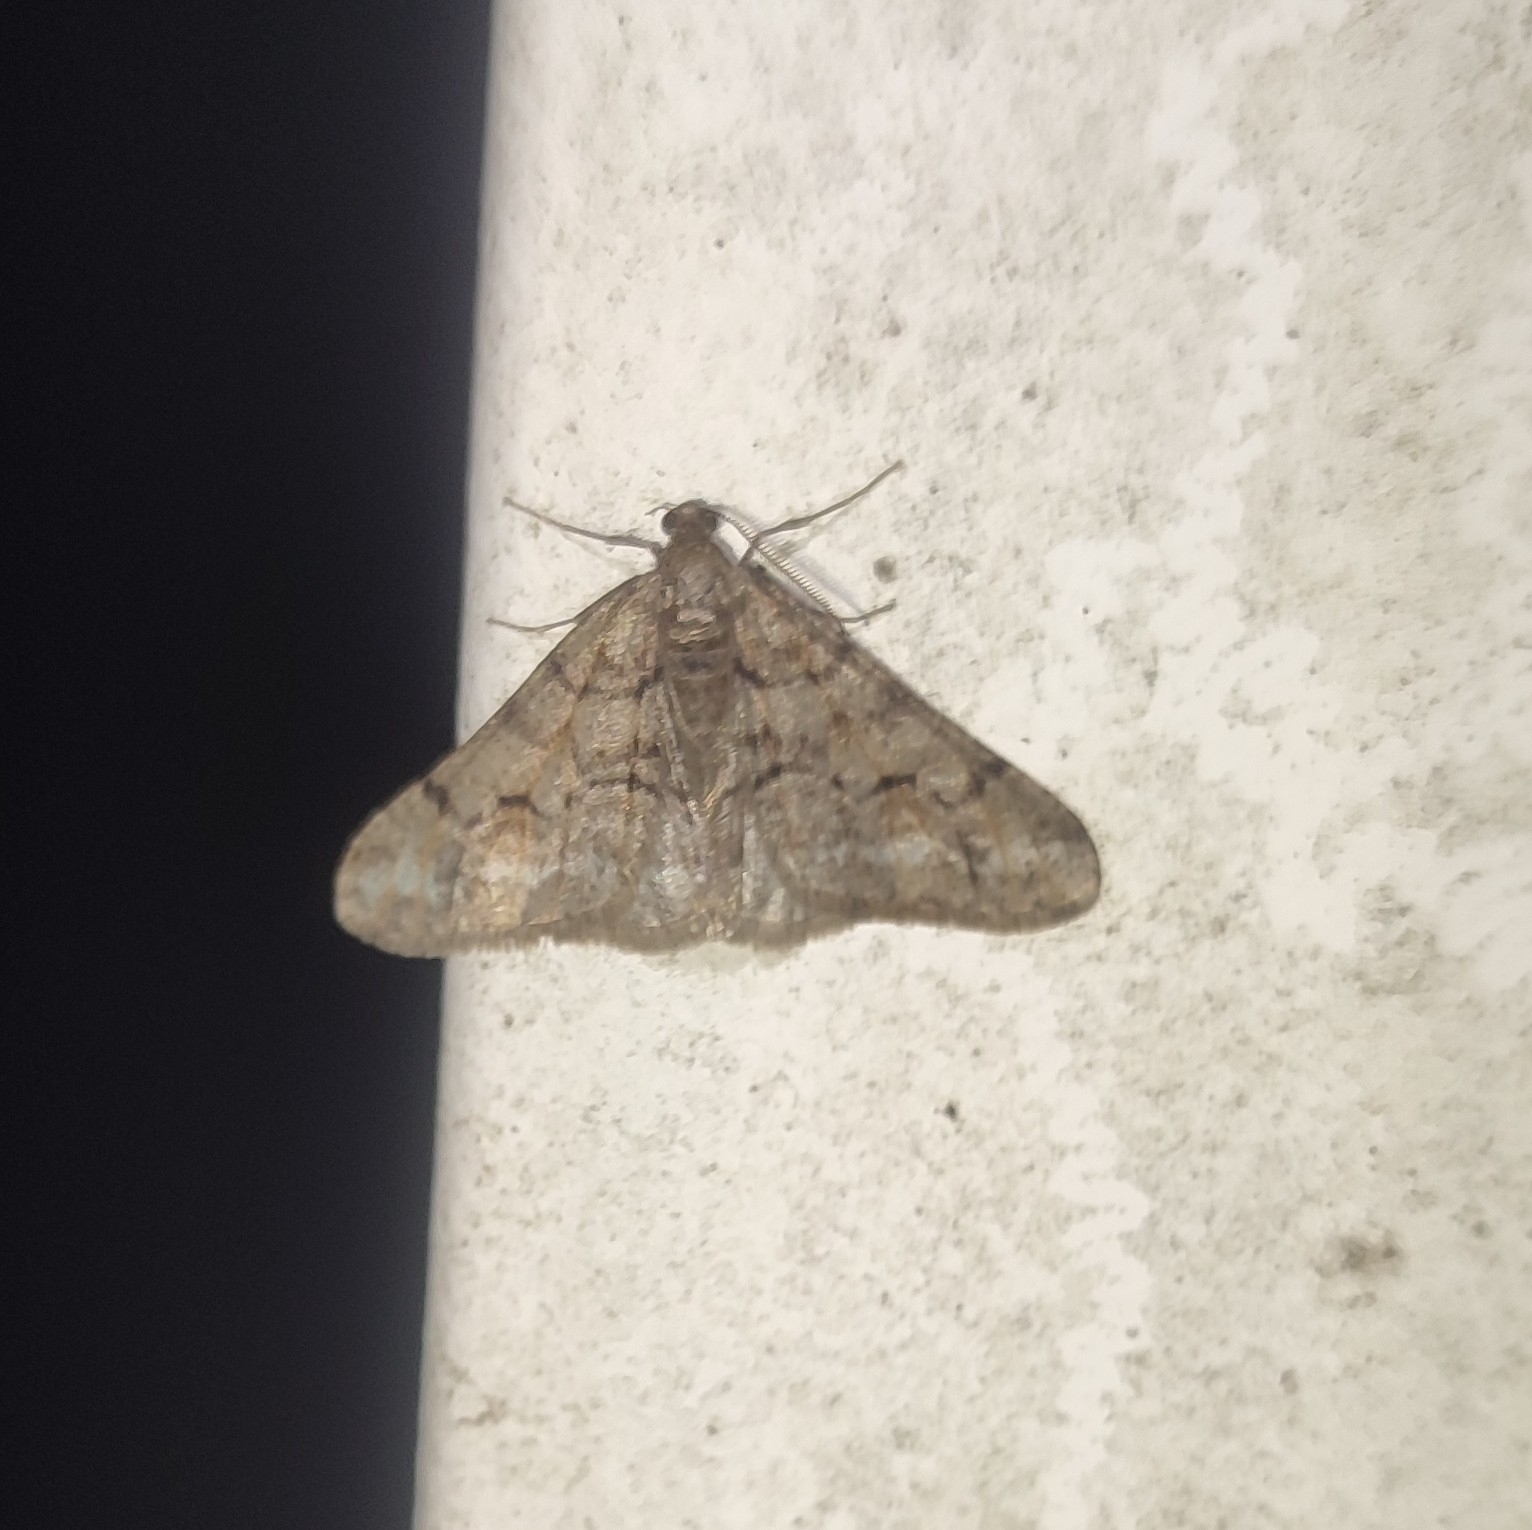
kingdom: Animalia
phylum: Arthropoda
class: Insecta
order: Lepidoptera
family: Geometridae
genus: Agriopis
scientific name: Agriopis leucophaearia
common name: Spring usher
